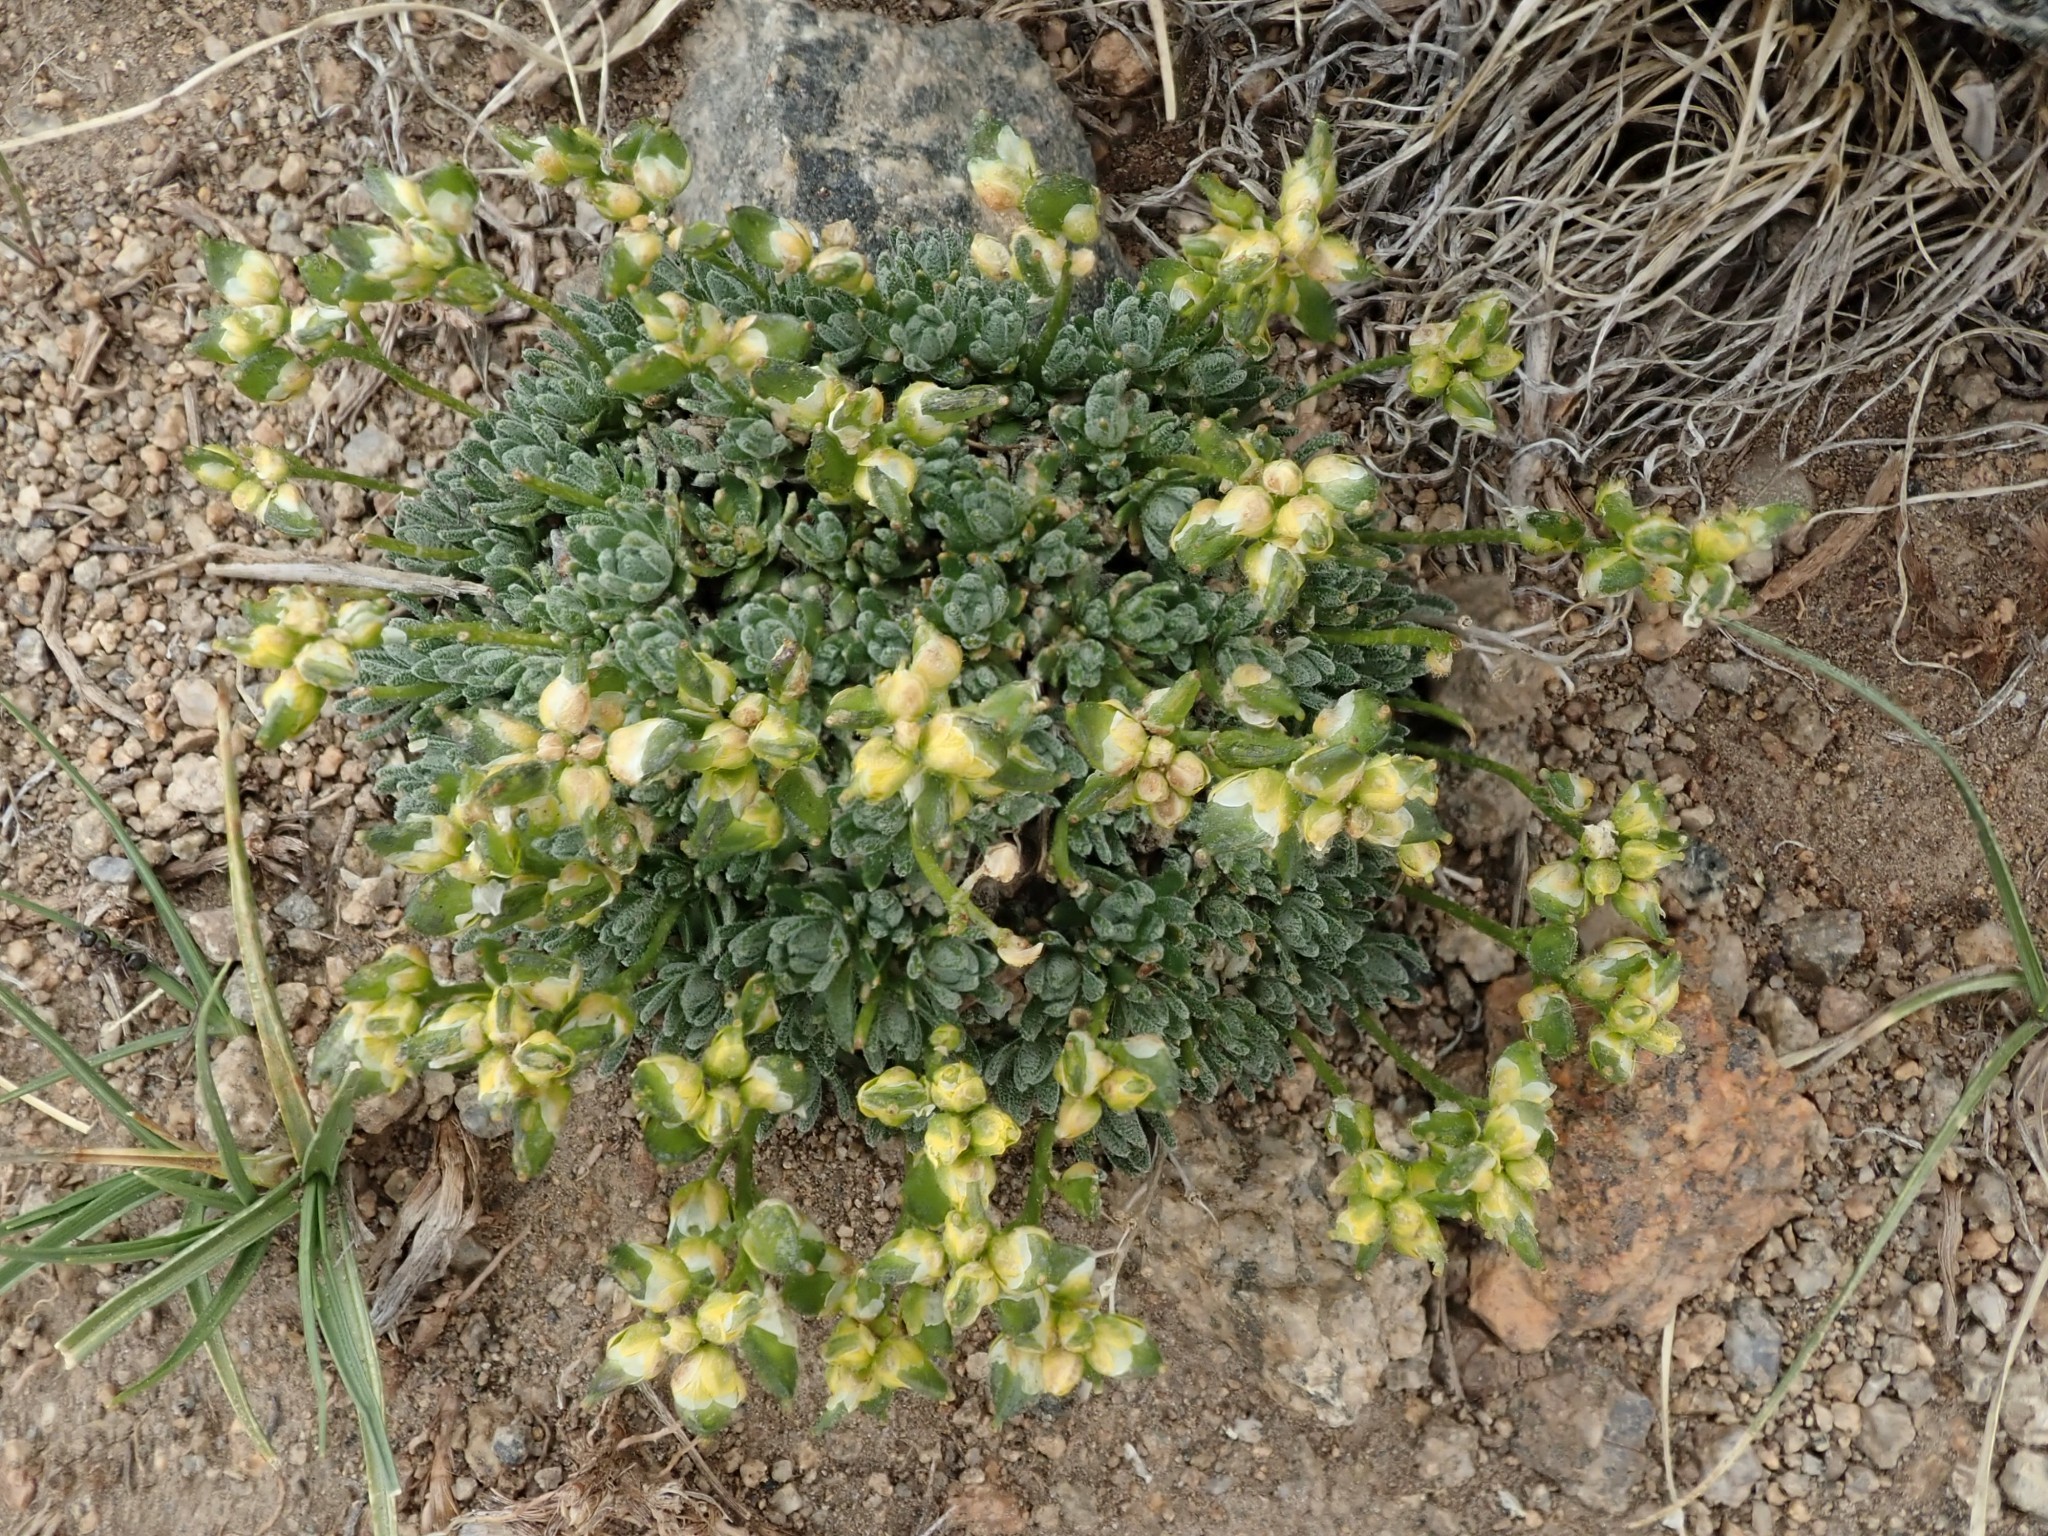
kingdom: Plantae
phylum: Tracheophyta
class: Magnoliopsida
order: Brassicales
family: Brassicaceae
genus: Draba
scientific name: Draba oligosperma
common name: Few-seed draba
